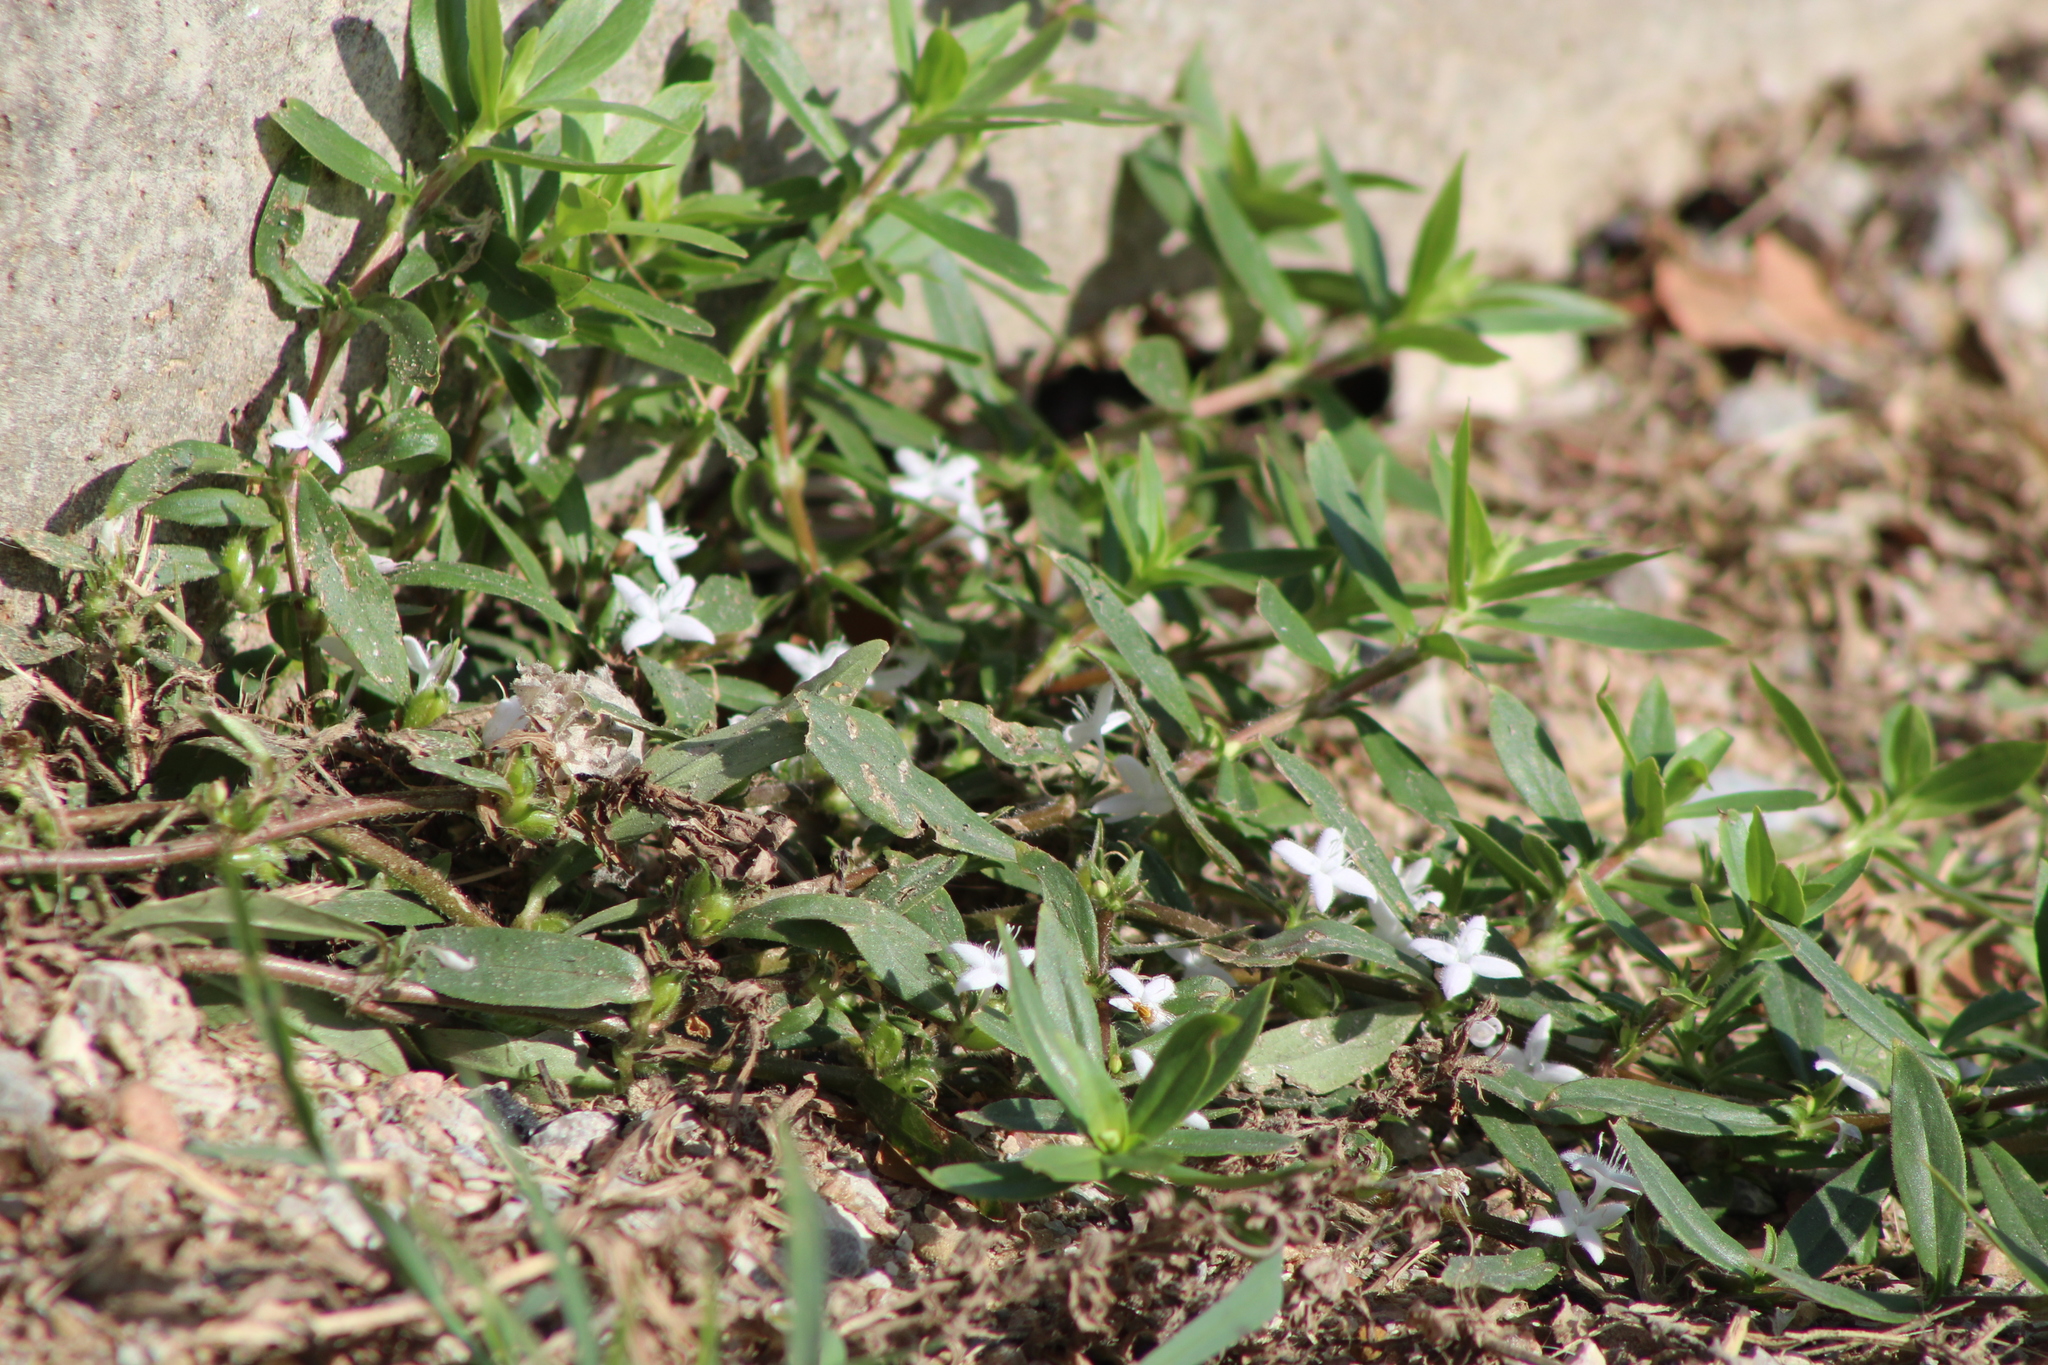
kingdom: Plantae
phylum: Tracheophyta
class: Magnoliopsida
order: Gentianales
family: Rubiaceae
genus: Diodia
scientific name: Diodia virginiana
